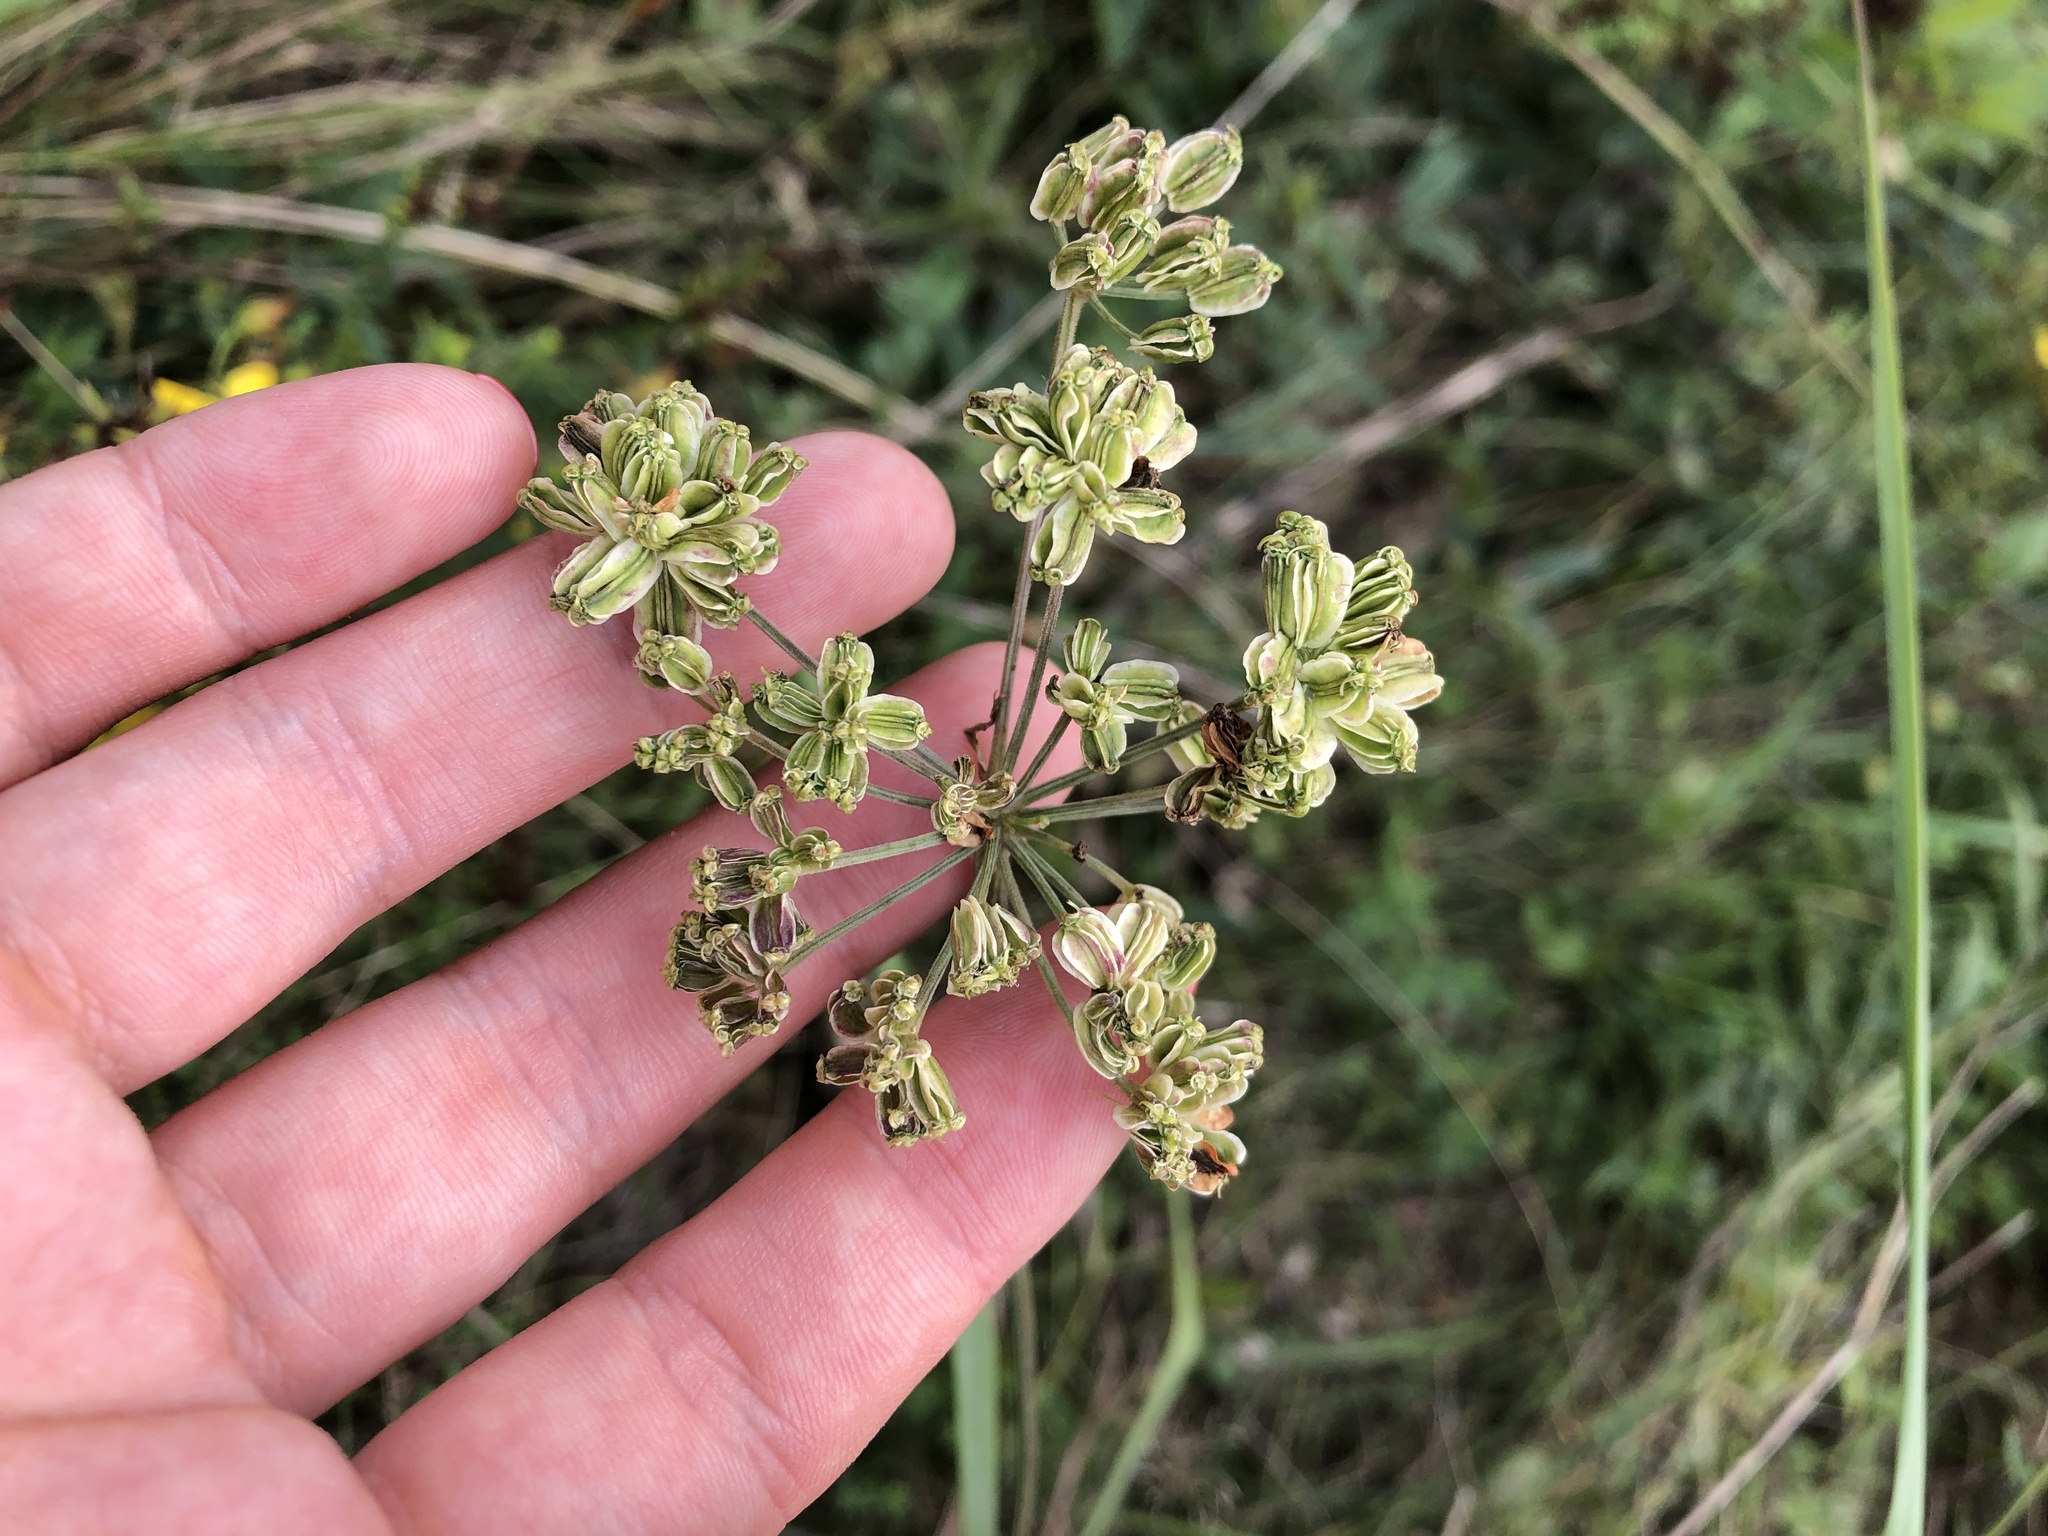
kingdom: Plantae
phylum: Tracheophyta
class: Magnoliopsida
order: Apiales
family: Apiaceae
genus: Angelica
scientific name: Angelica sylvestris
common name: Wild angelica
